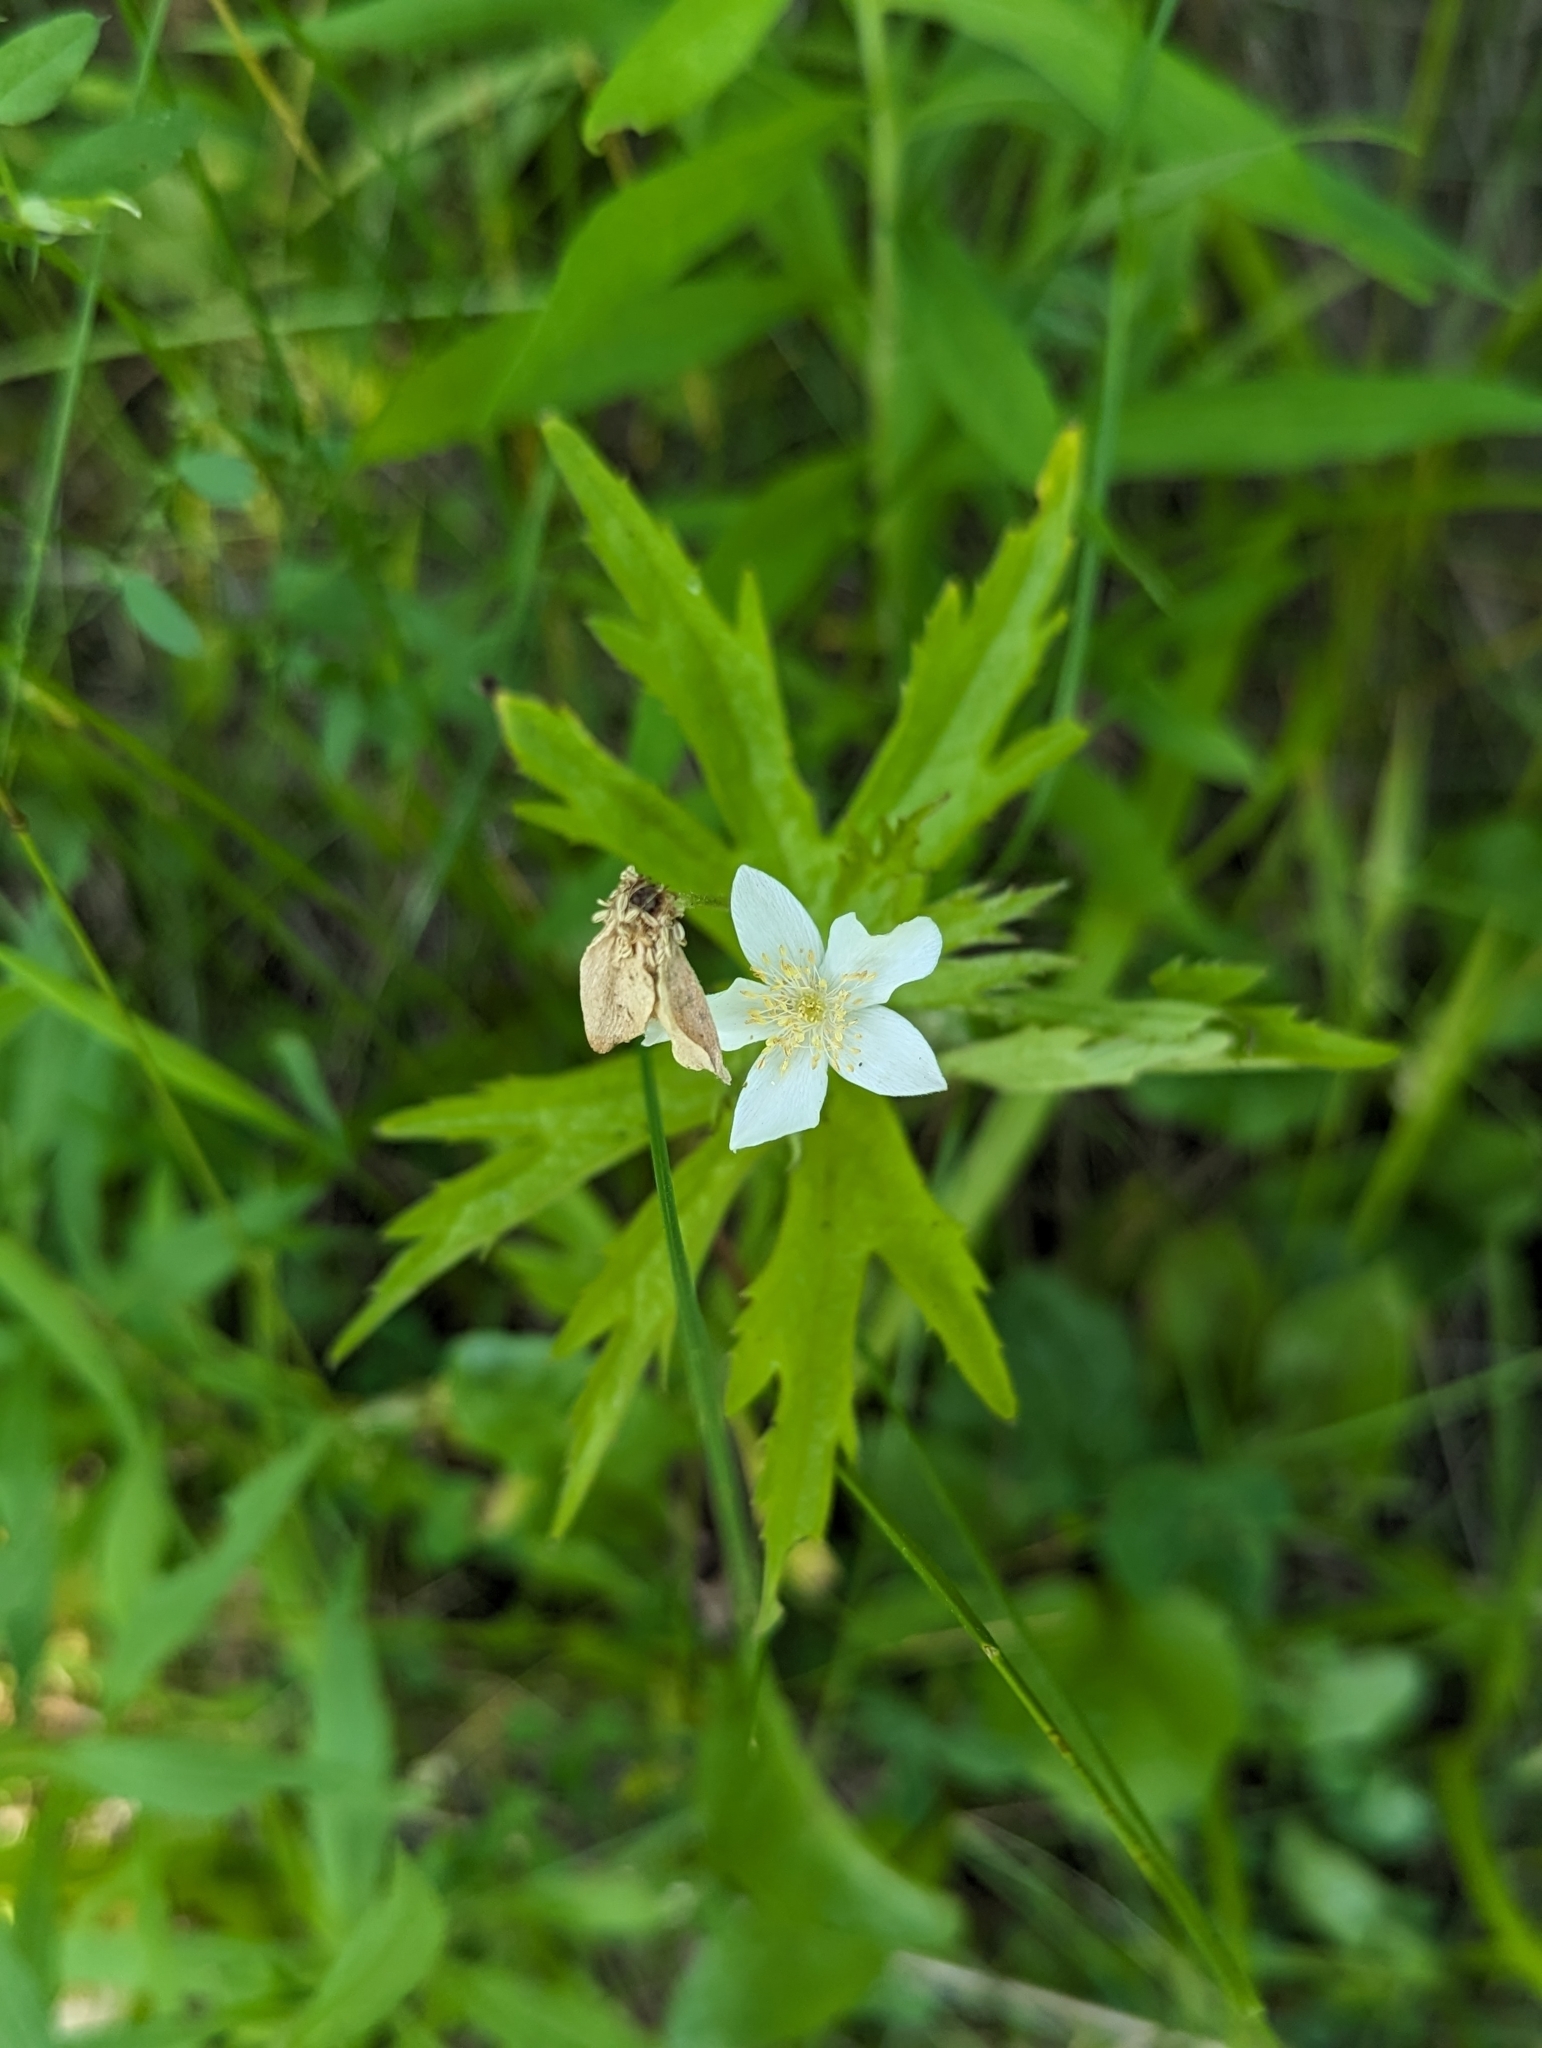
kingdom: Plantae
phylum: Tracheophyta
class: Magnoliopsida
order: Ranunculales
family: Ranunculaceae
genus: Anemonastrum
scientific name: Anemonastrum canadense
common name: Canada anemone
